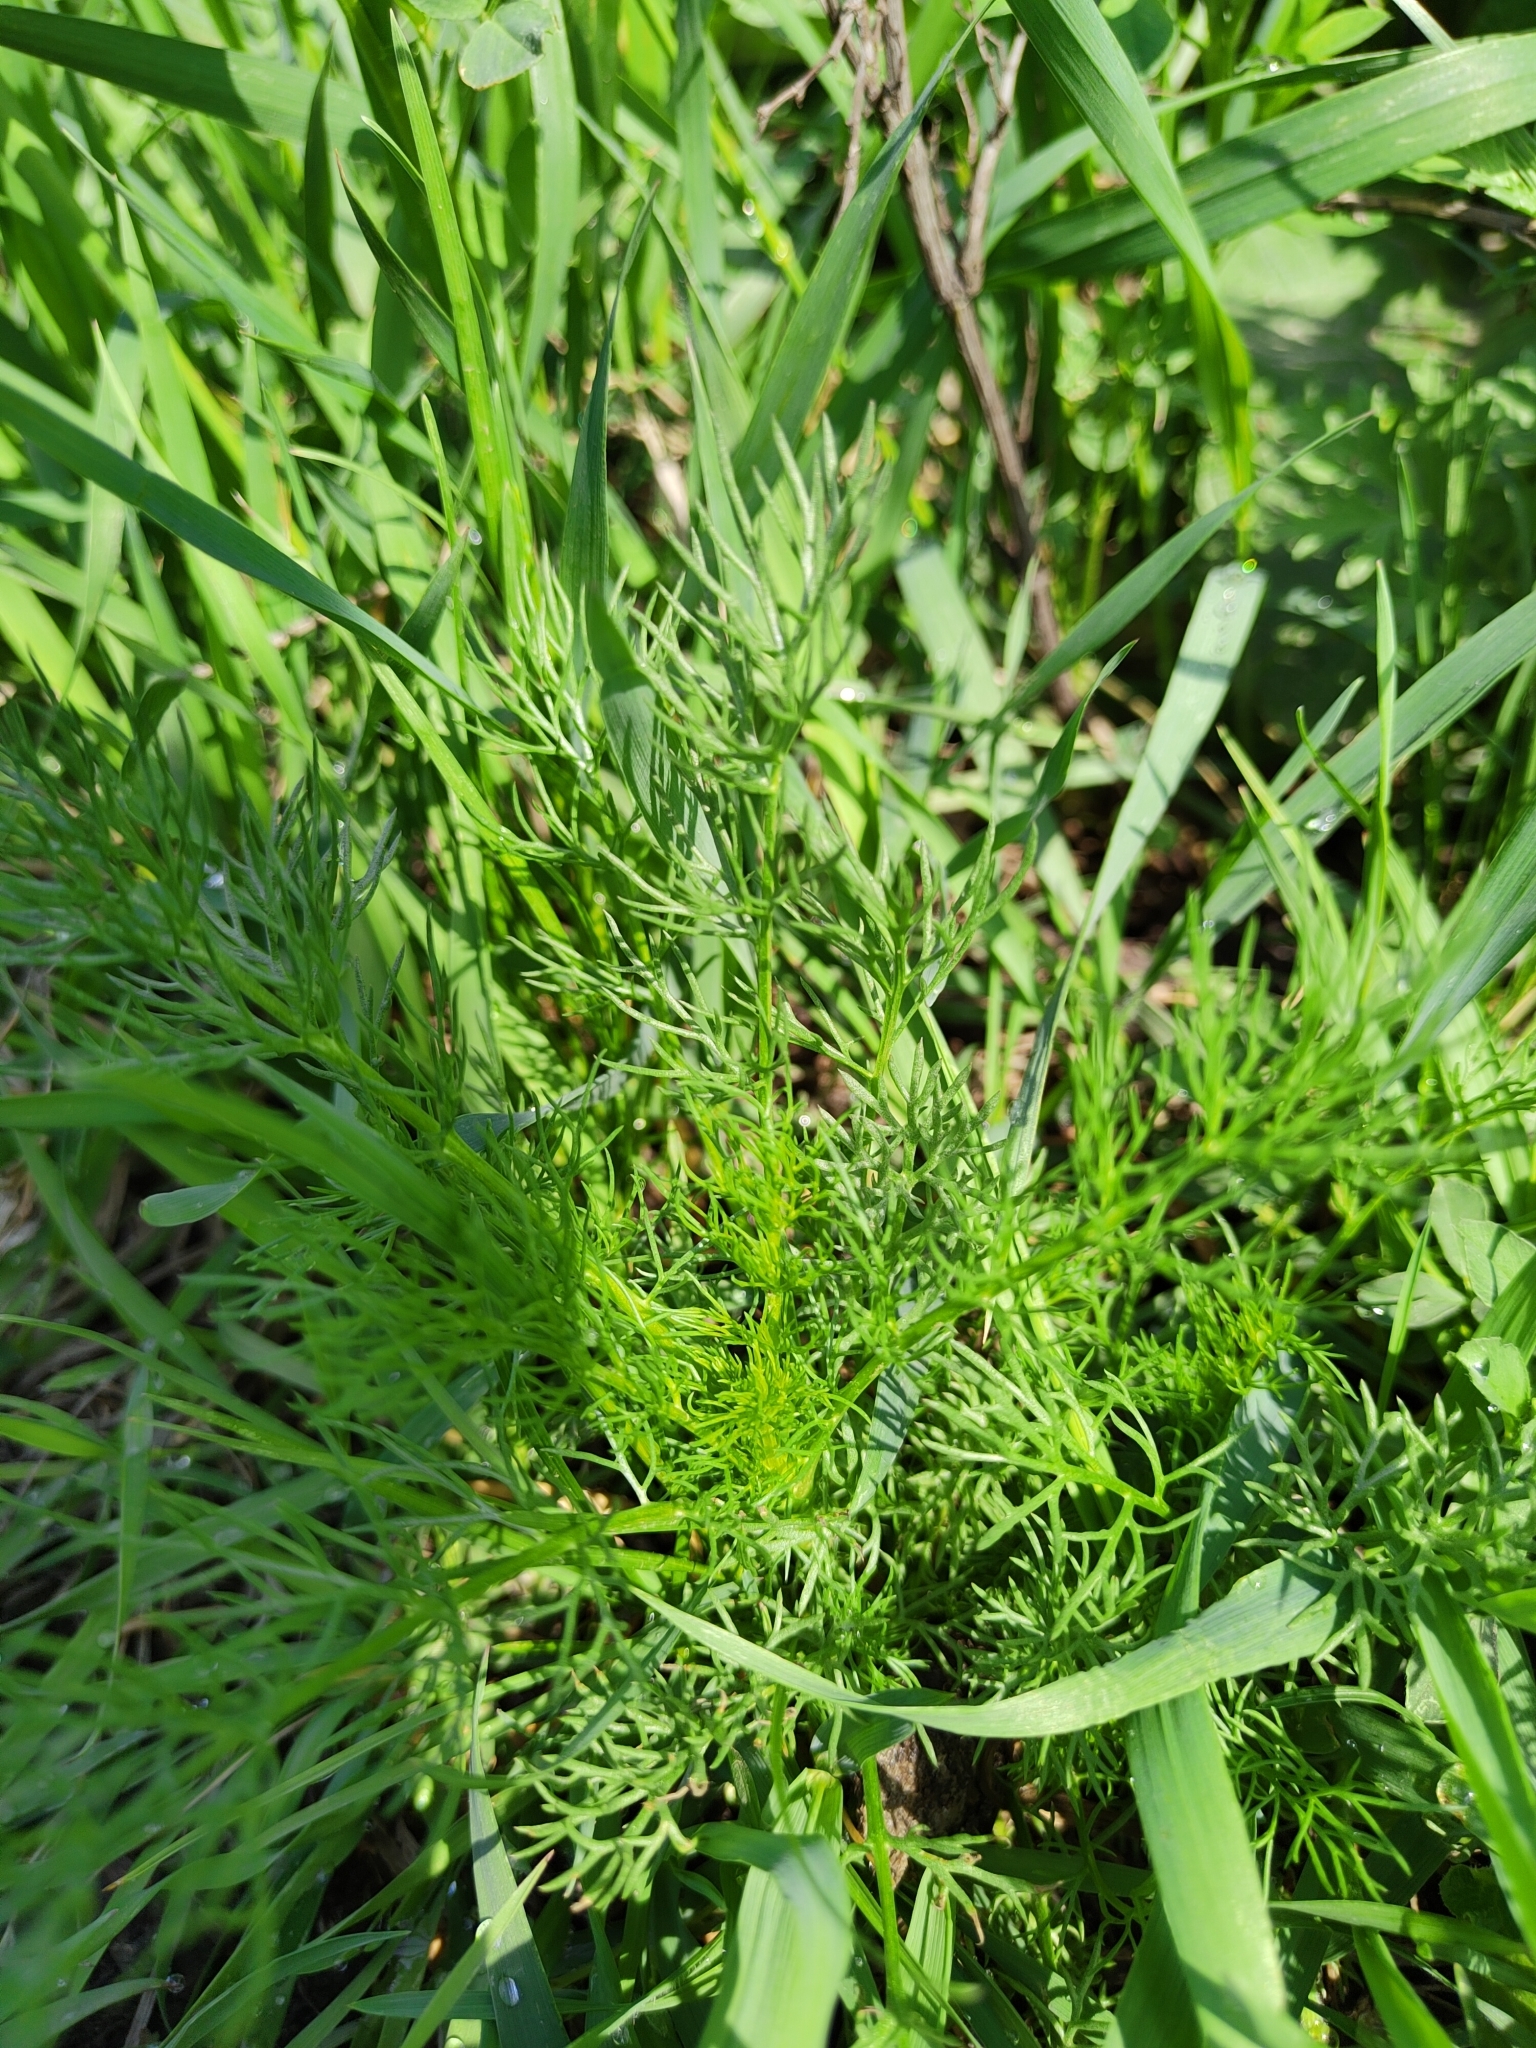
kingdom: Plantae
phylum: Tracheophyta
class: Magnoliopsida
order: Asterales
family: Asteraceae
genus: Tripleurospermum
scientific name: Tripleurospermum inodorum
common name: Scentless mayweed
